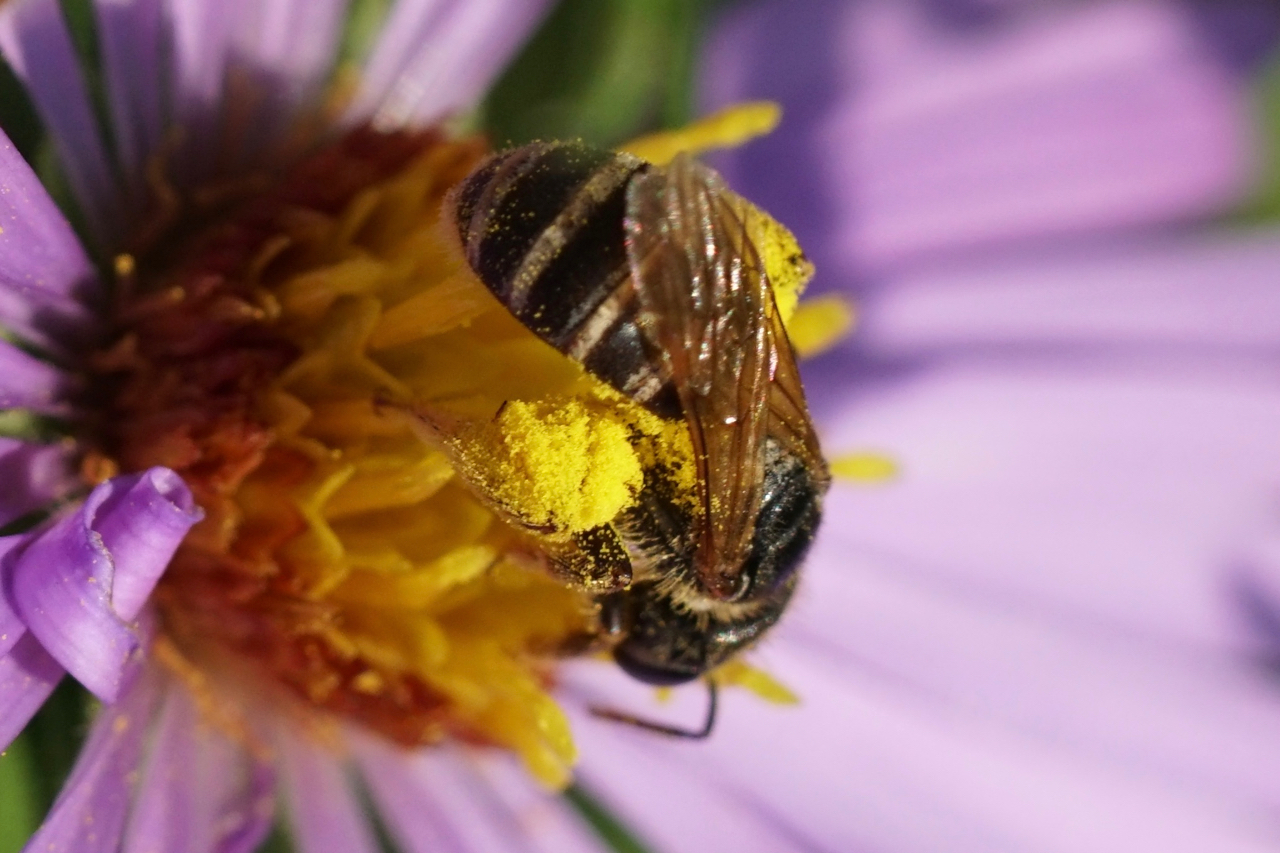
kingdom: Animalia
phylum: Arthropoda
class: Insecta
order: Hymenoptera
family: Halictidae
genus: Halictus
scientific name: Halictus ligatus
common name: Ligated furrow bee
